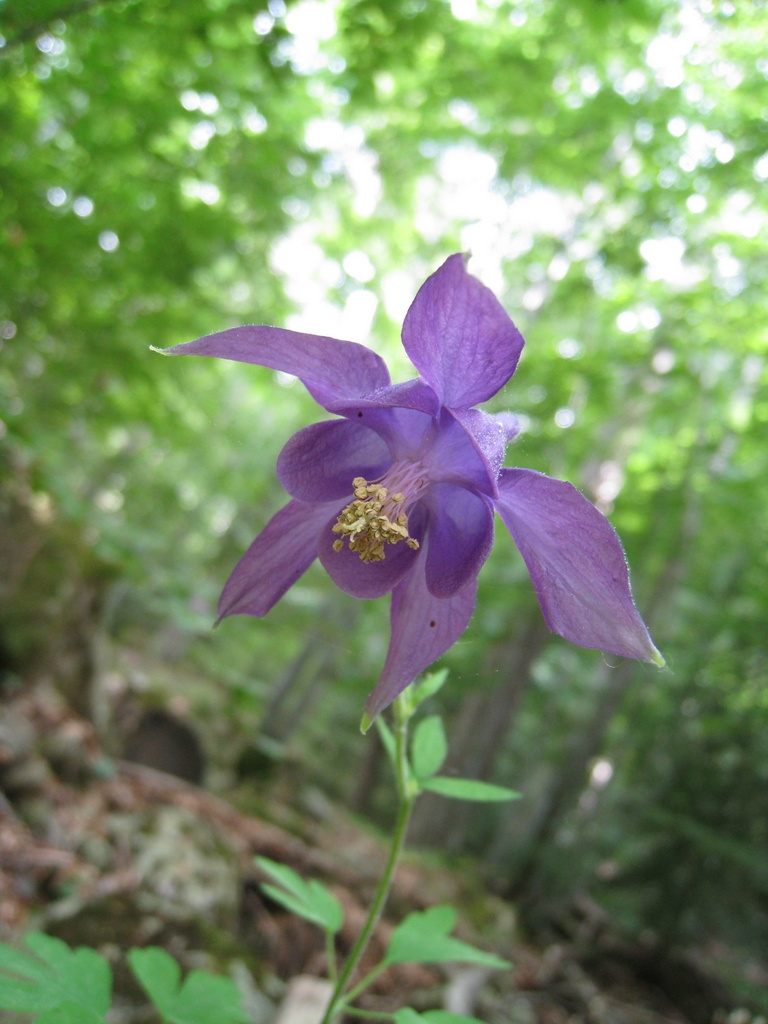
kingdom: Plantae
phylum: Tracheophyta
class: Magnoliopsida
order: Ranunculales
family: Ranunculaceae
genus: Aquilegia
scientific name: Aquilegia dumeticola
